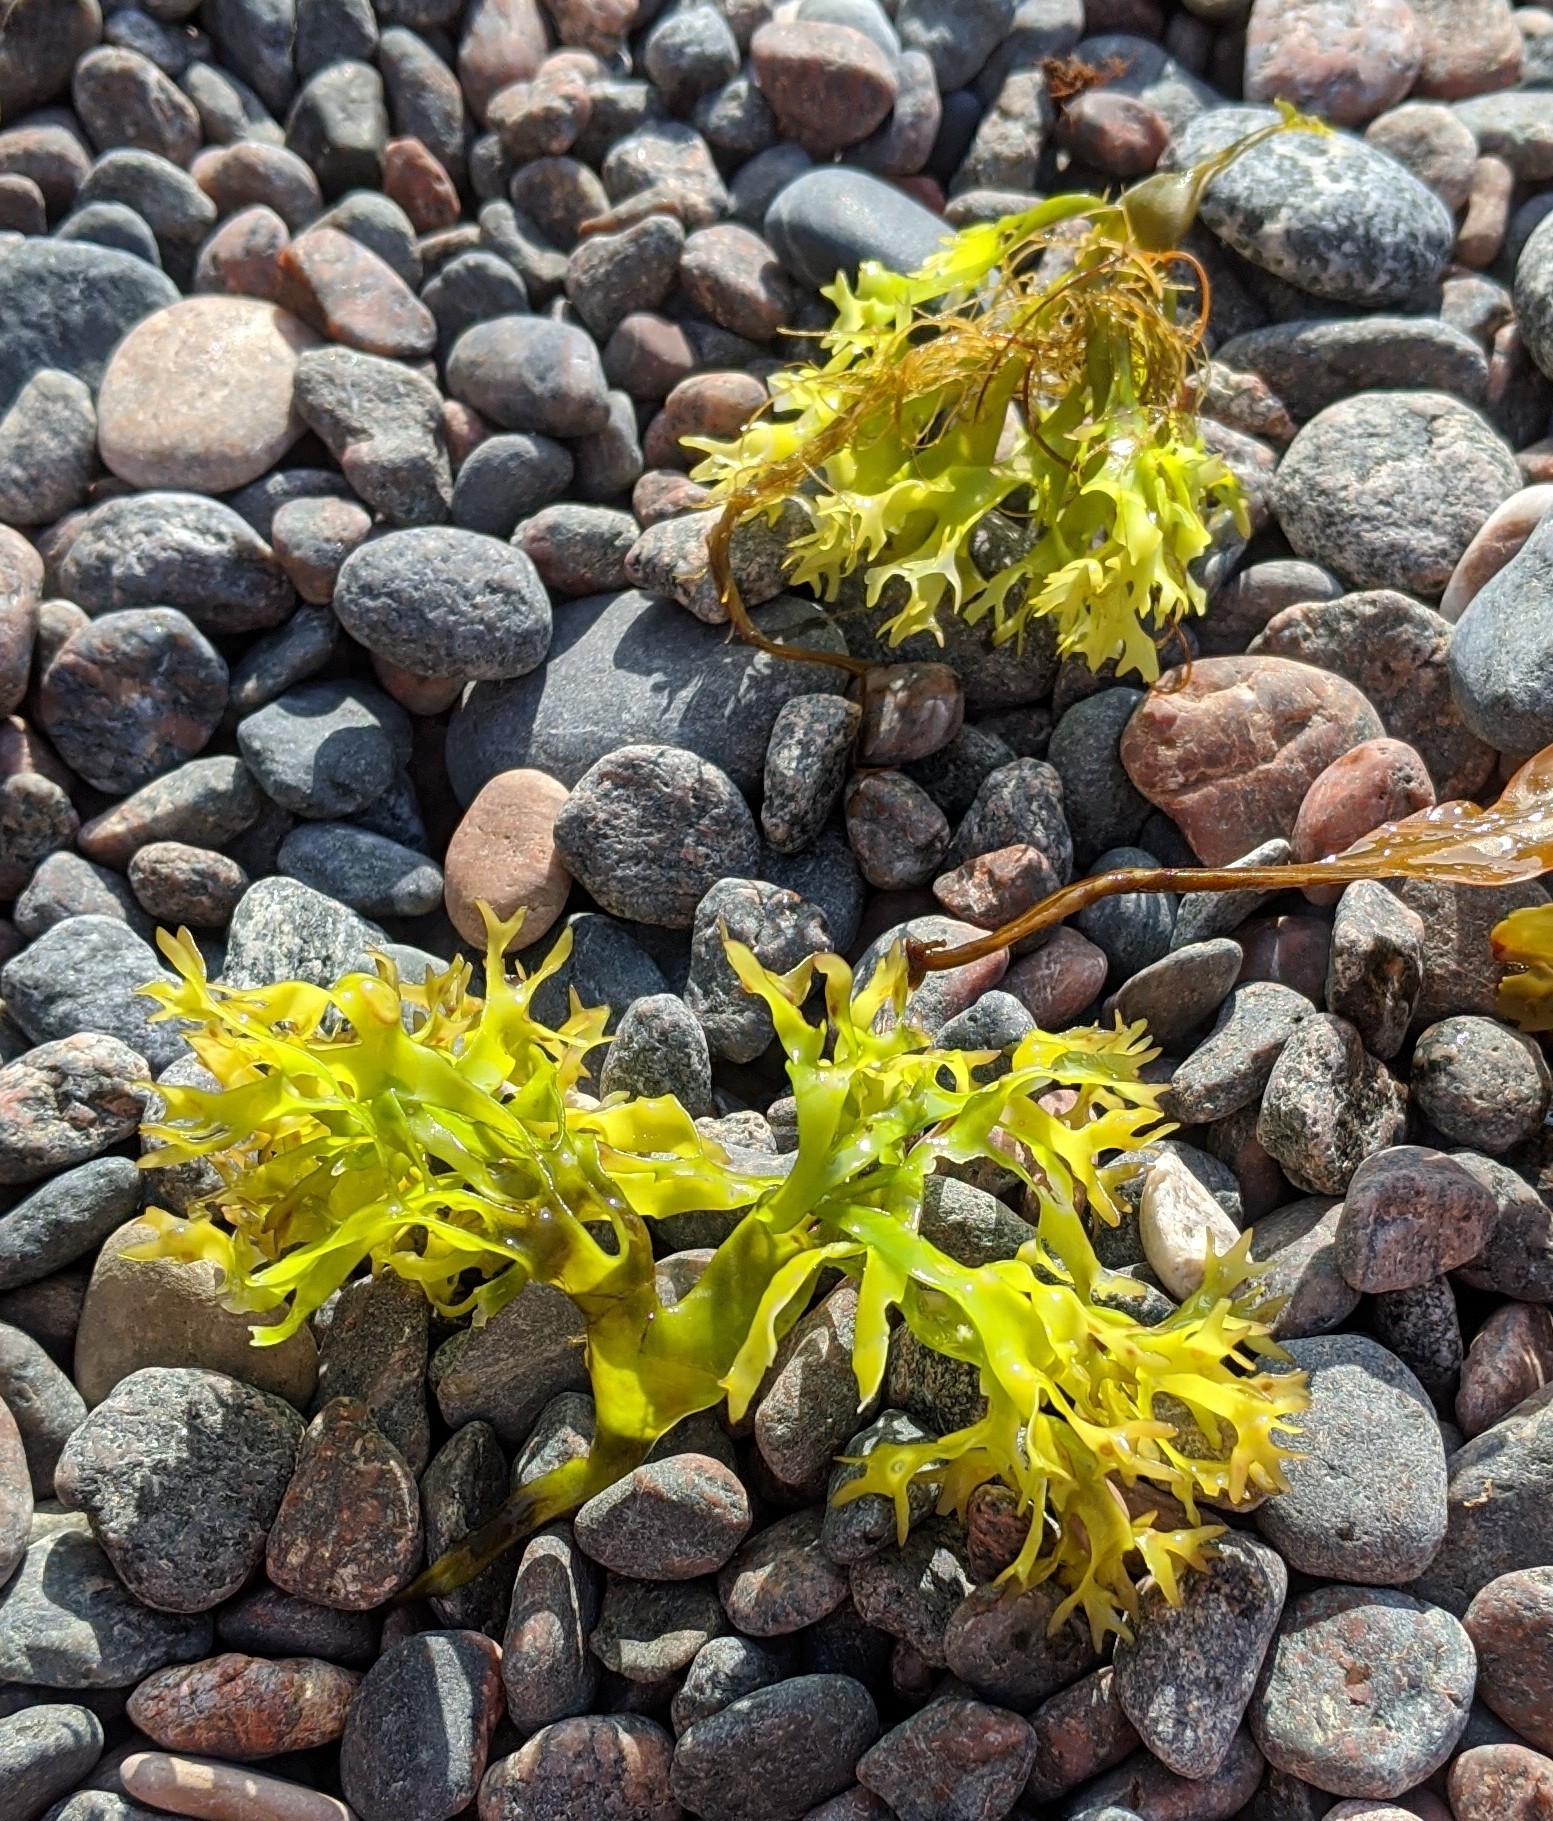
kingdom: Plantae
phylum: Rhodophyta
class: Florideophyceae
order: Gigartinales
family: Gigartinaceae
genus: Chondrus
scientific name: Chondrus crispus
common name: Carrageen
